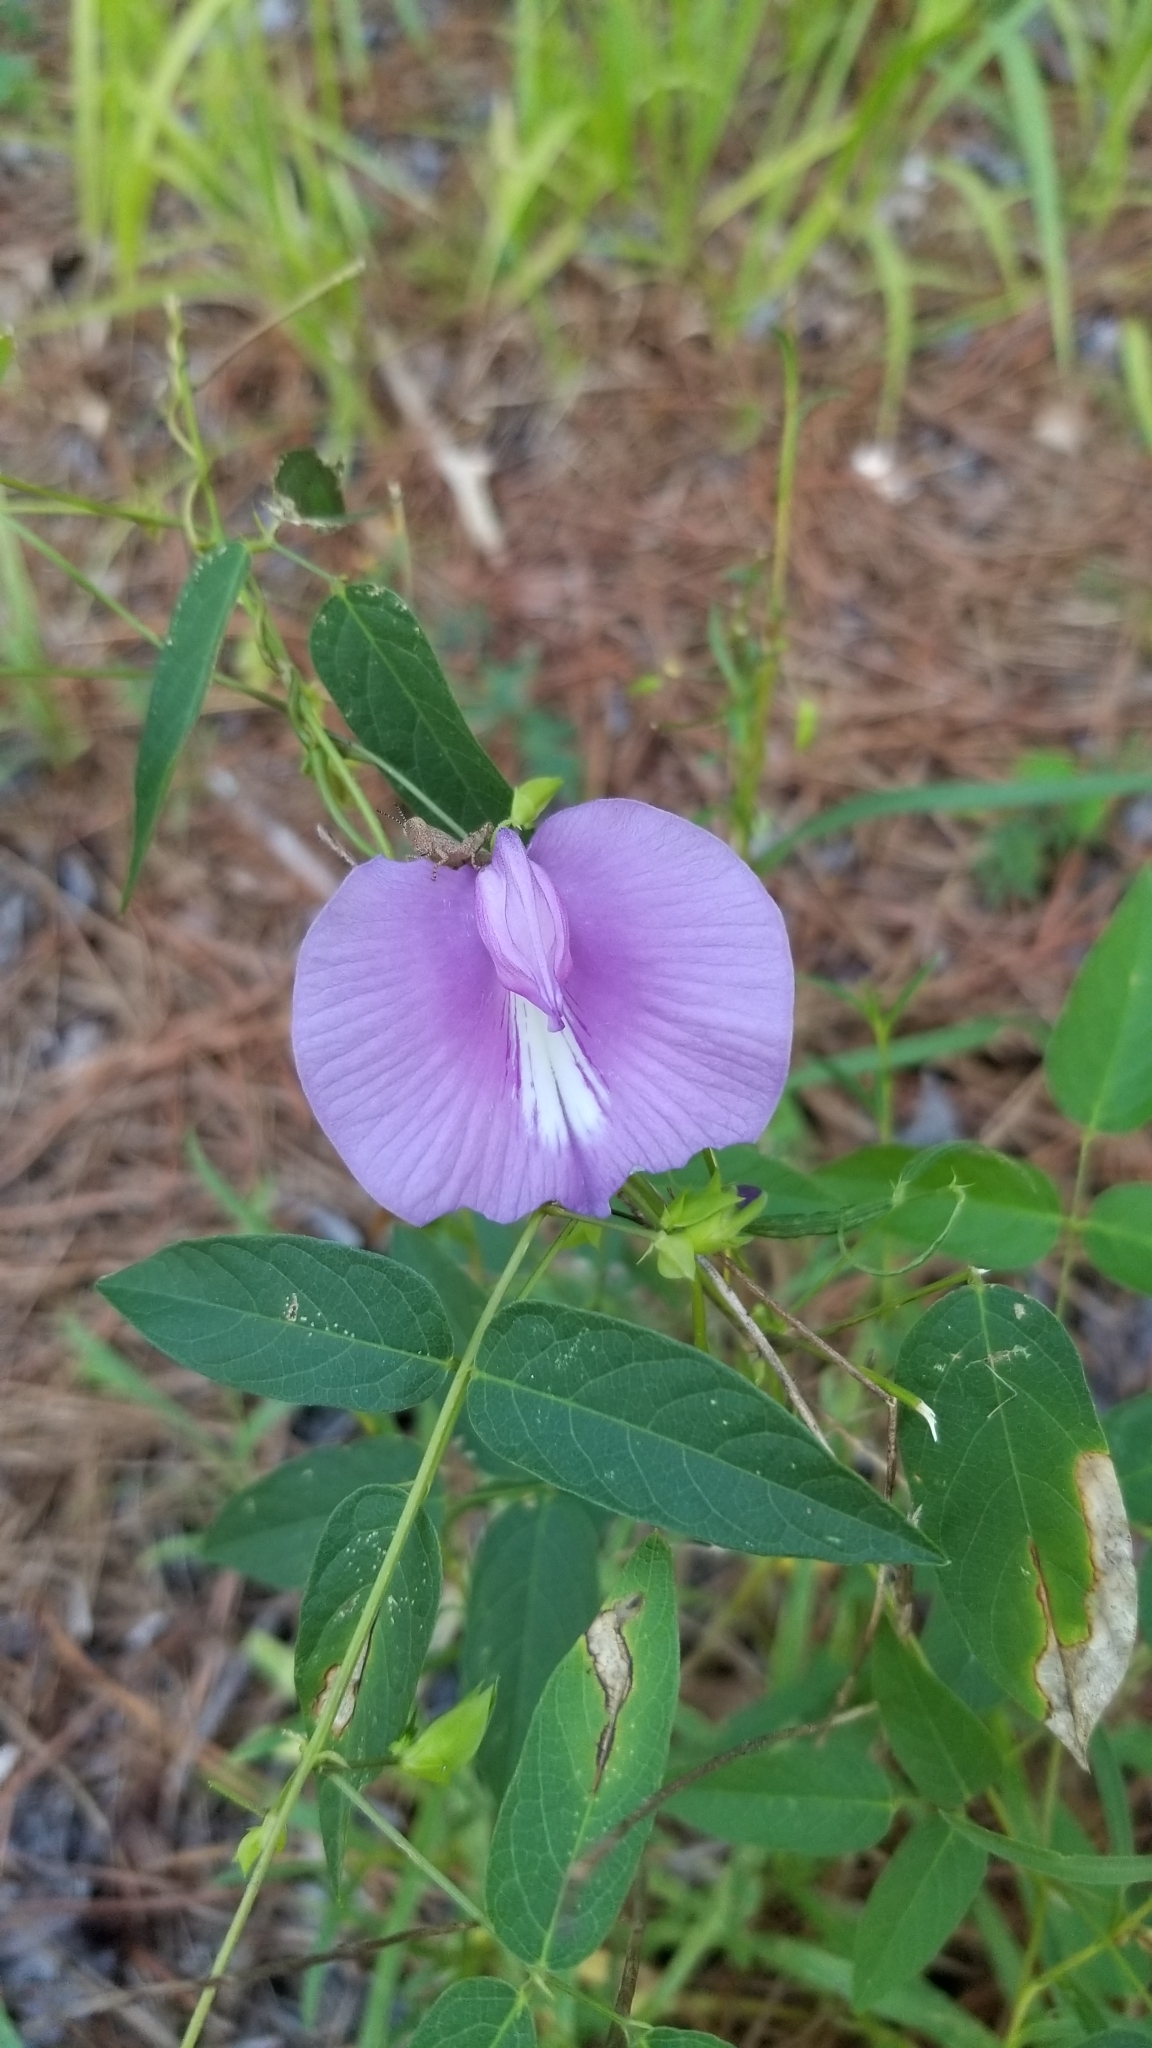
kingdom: Plantae
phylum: Tracheophyta
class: Magnoliopsida
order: Fabales
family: Fabaceae
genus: Centrosema
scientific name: Centrosema virginianum
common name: Butterfly-pea
